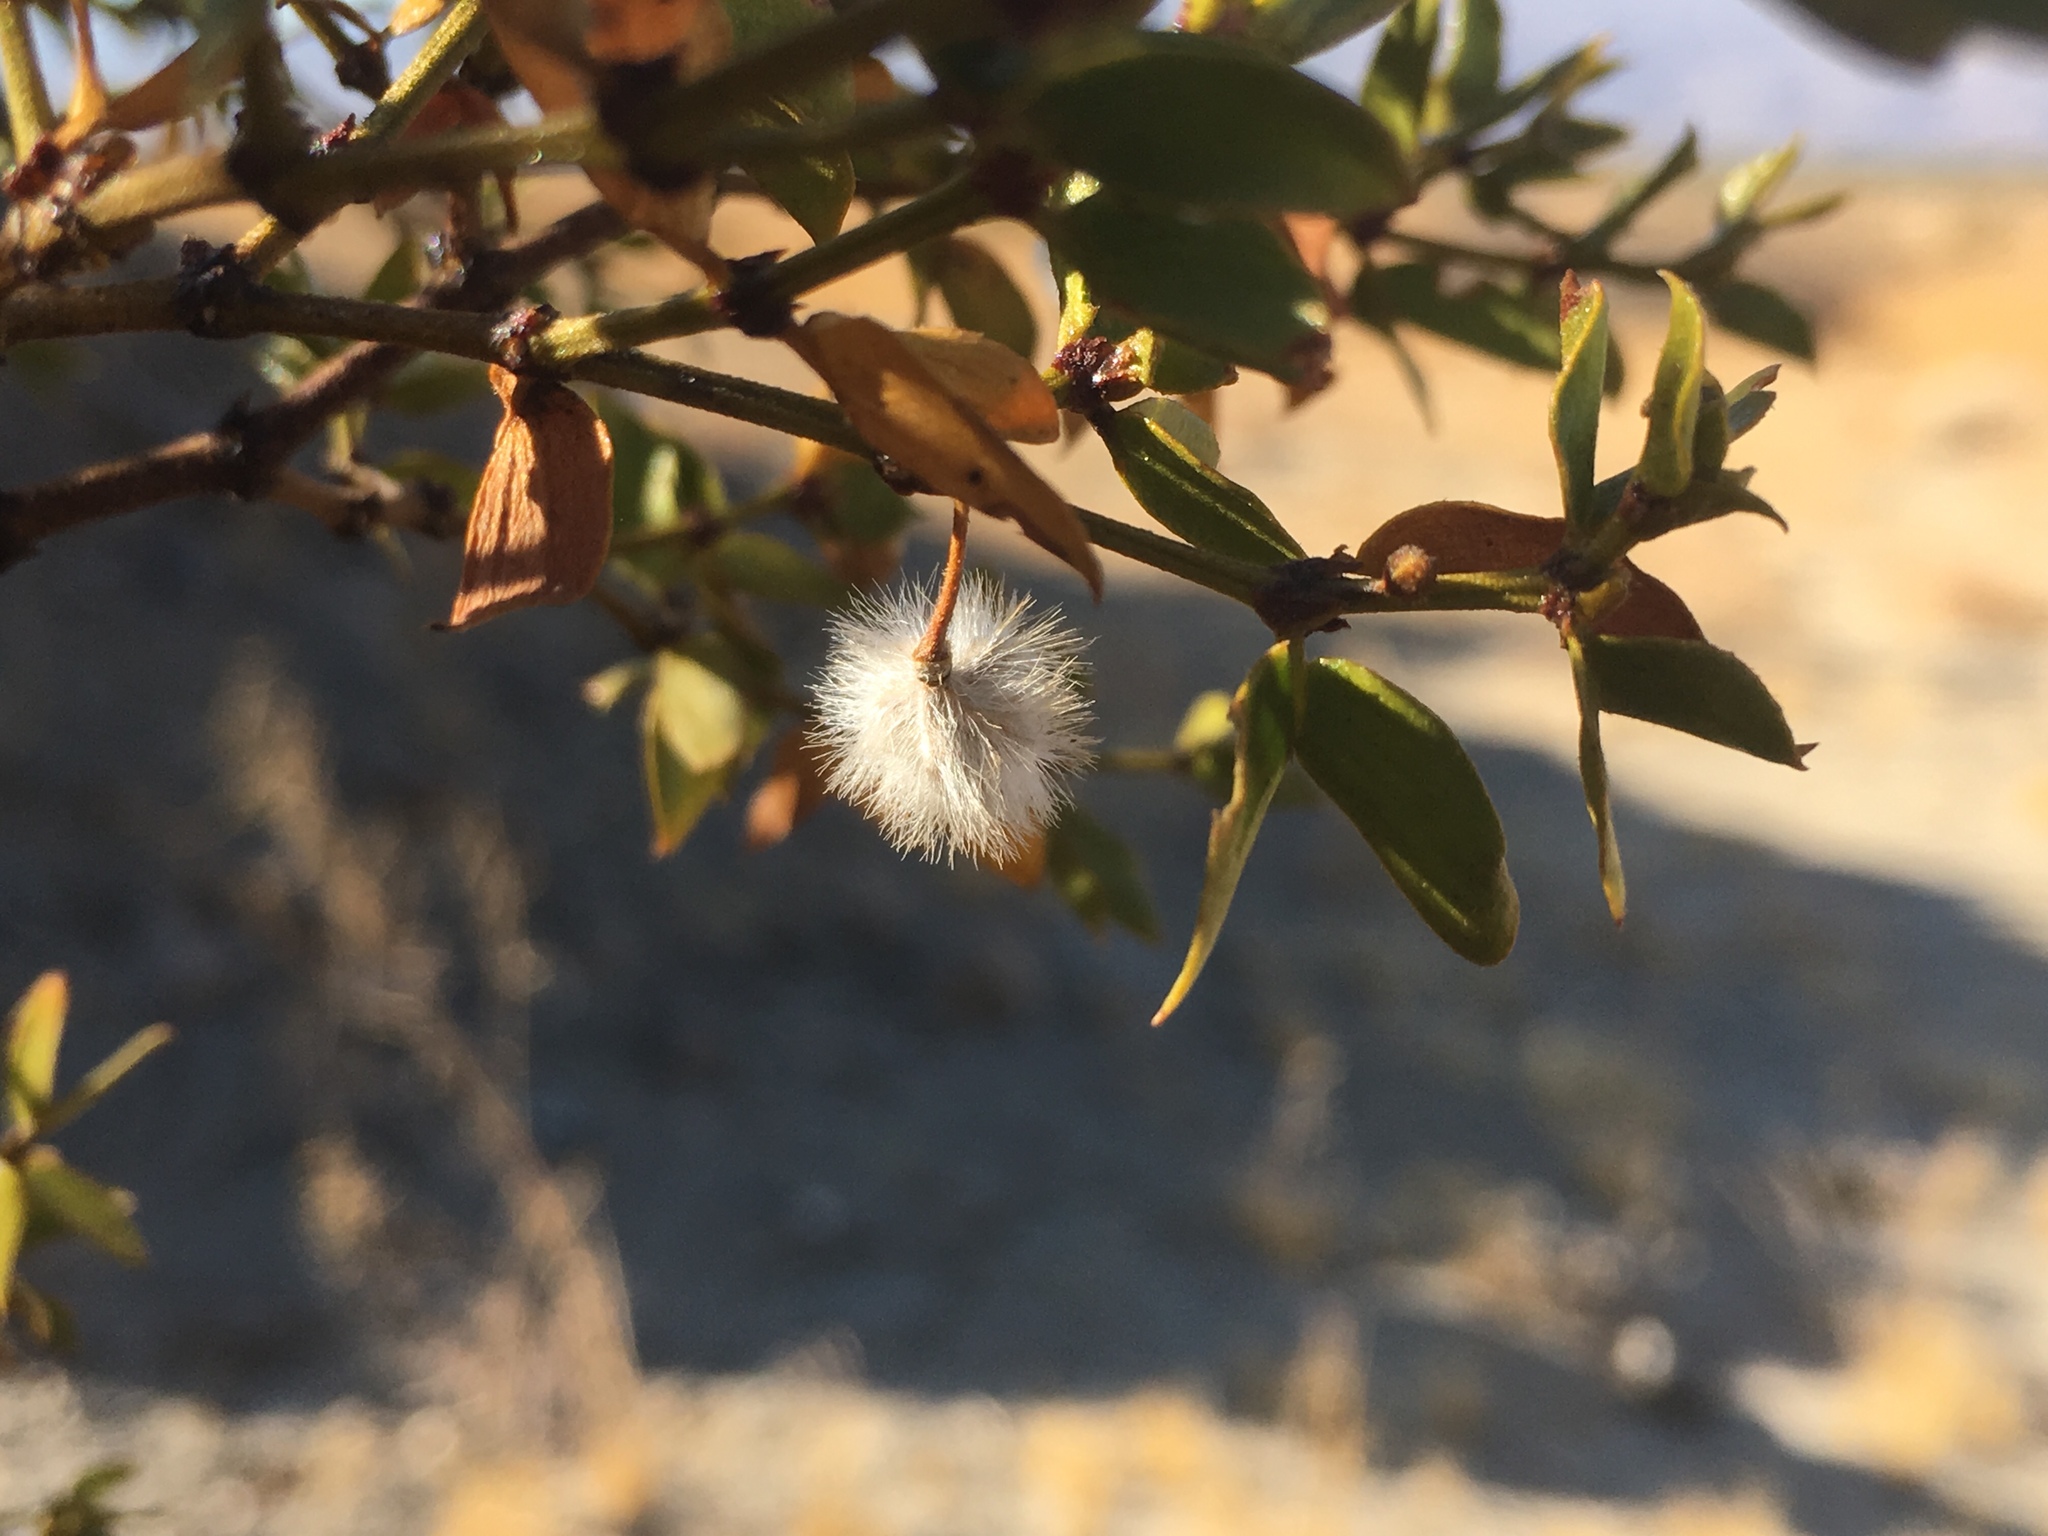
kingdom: Plantae
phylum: Tracheophyta
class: Magnoliopsida
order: Zygophyllales
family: Zygophyllaceae
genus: Larrea
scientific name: Larrea tridentata
